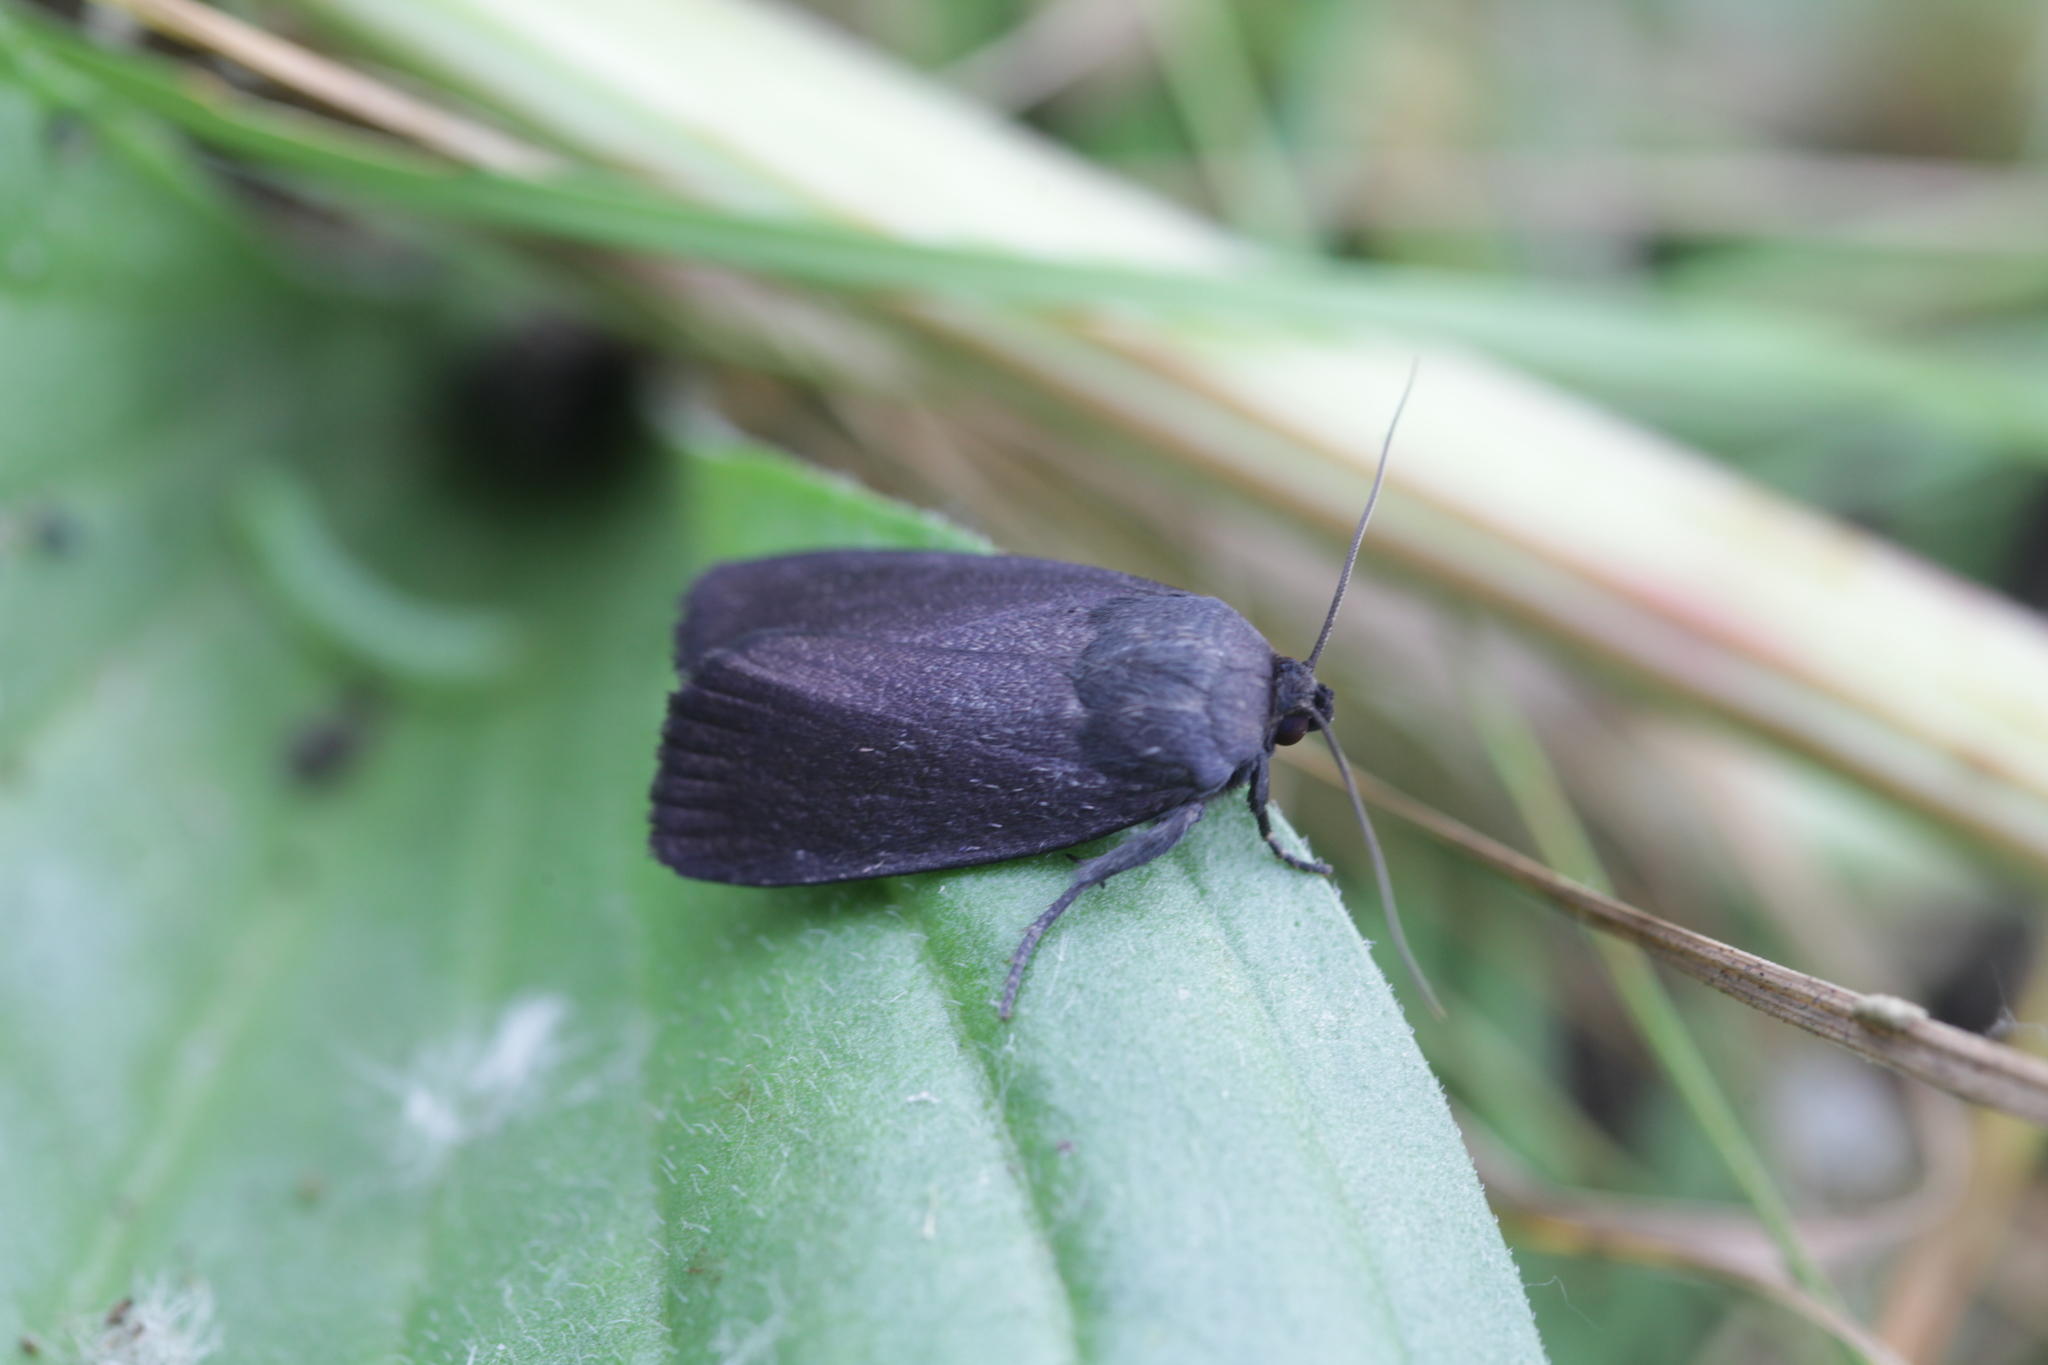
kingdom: Animalia
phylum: Arthropoda
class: Insecta
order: Lepidoptera
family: Noctuidae
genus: Amphipyra
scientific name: Amphipyra livida
